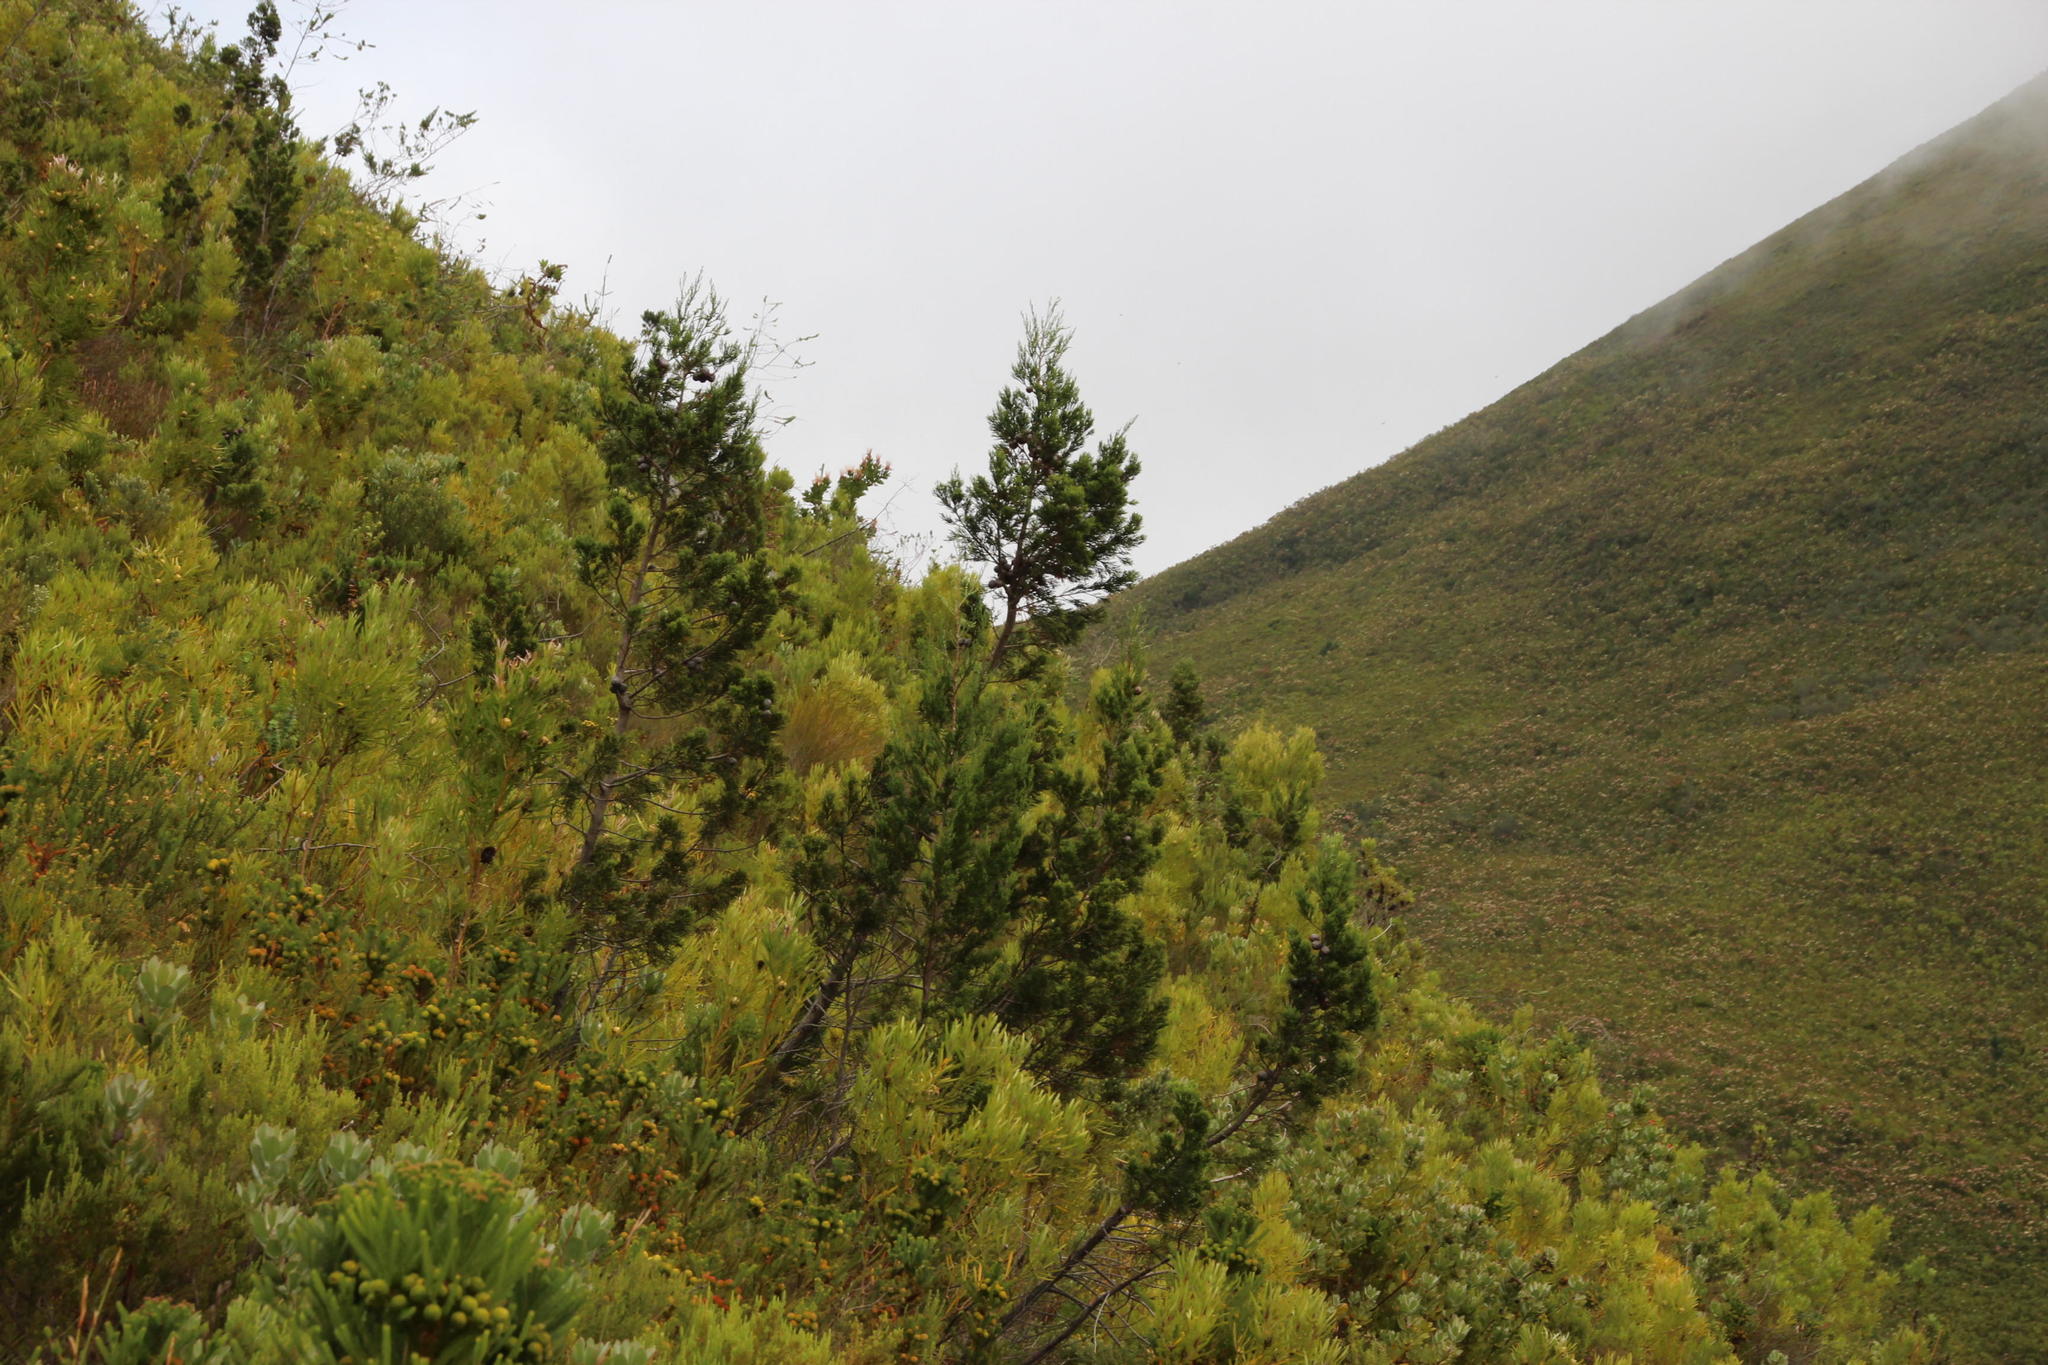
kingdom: Plantae
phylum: Tracheophyta
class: Pinopsida
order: Pinales
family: Cupressaceae
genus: Widdringtonia
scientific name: Widdringtonia nodiflora
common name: Cape cypress
